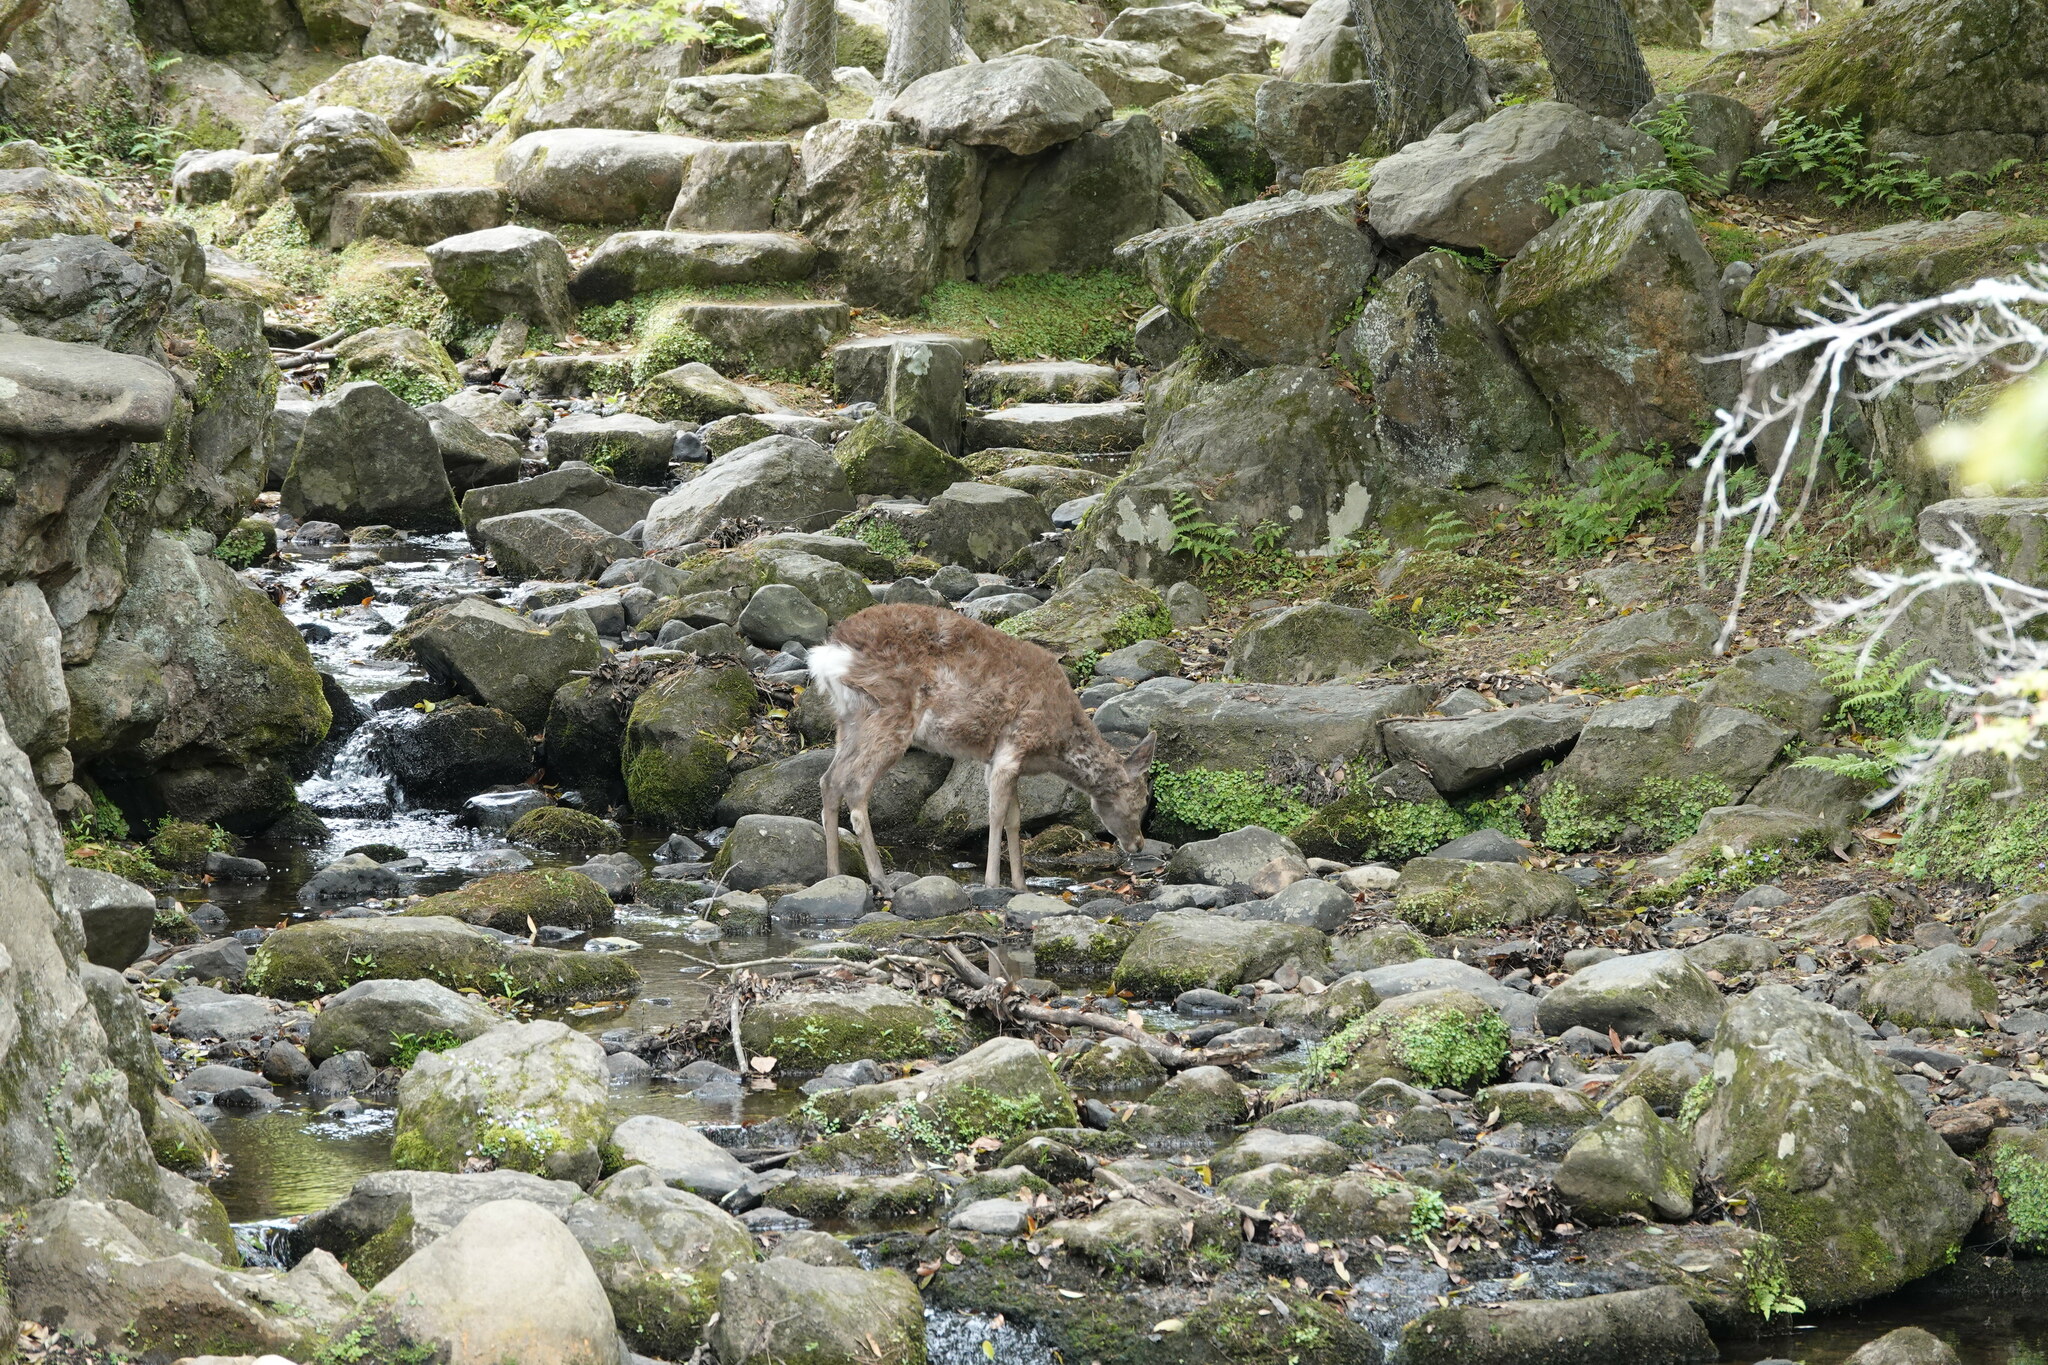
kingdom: Animalia
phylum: Chordata
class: Mammalia
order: Artiodactyla
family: Cervidae
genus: Cervus
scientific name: Cervus nippon
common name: Sika deer
